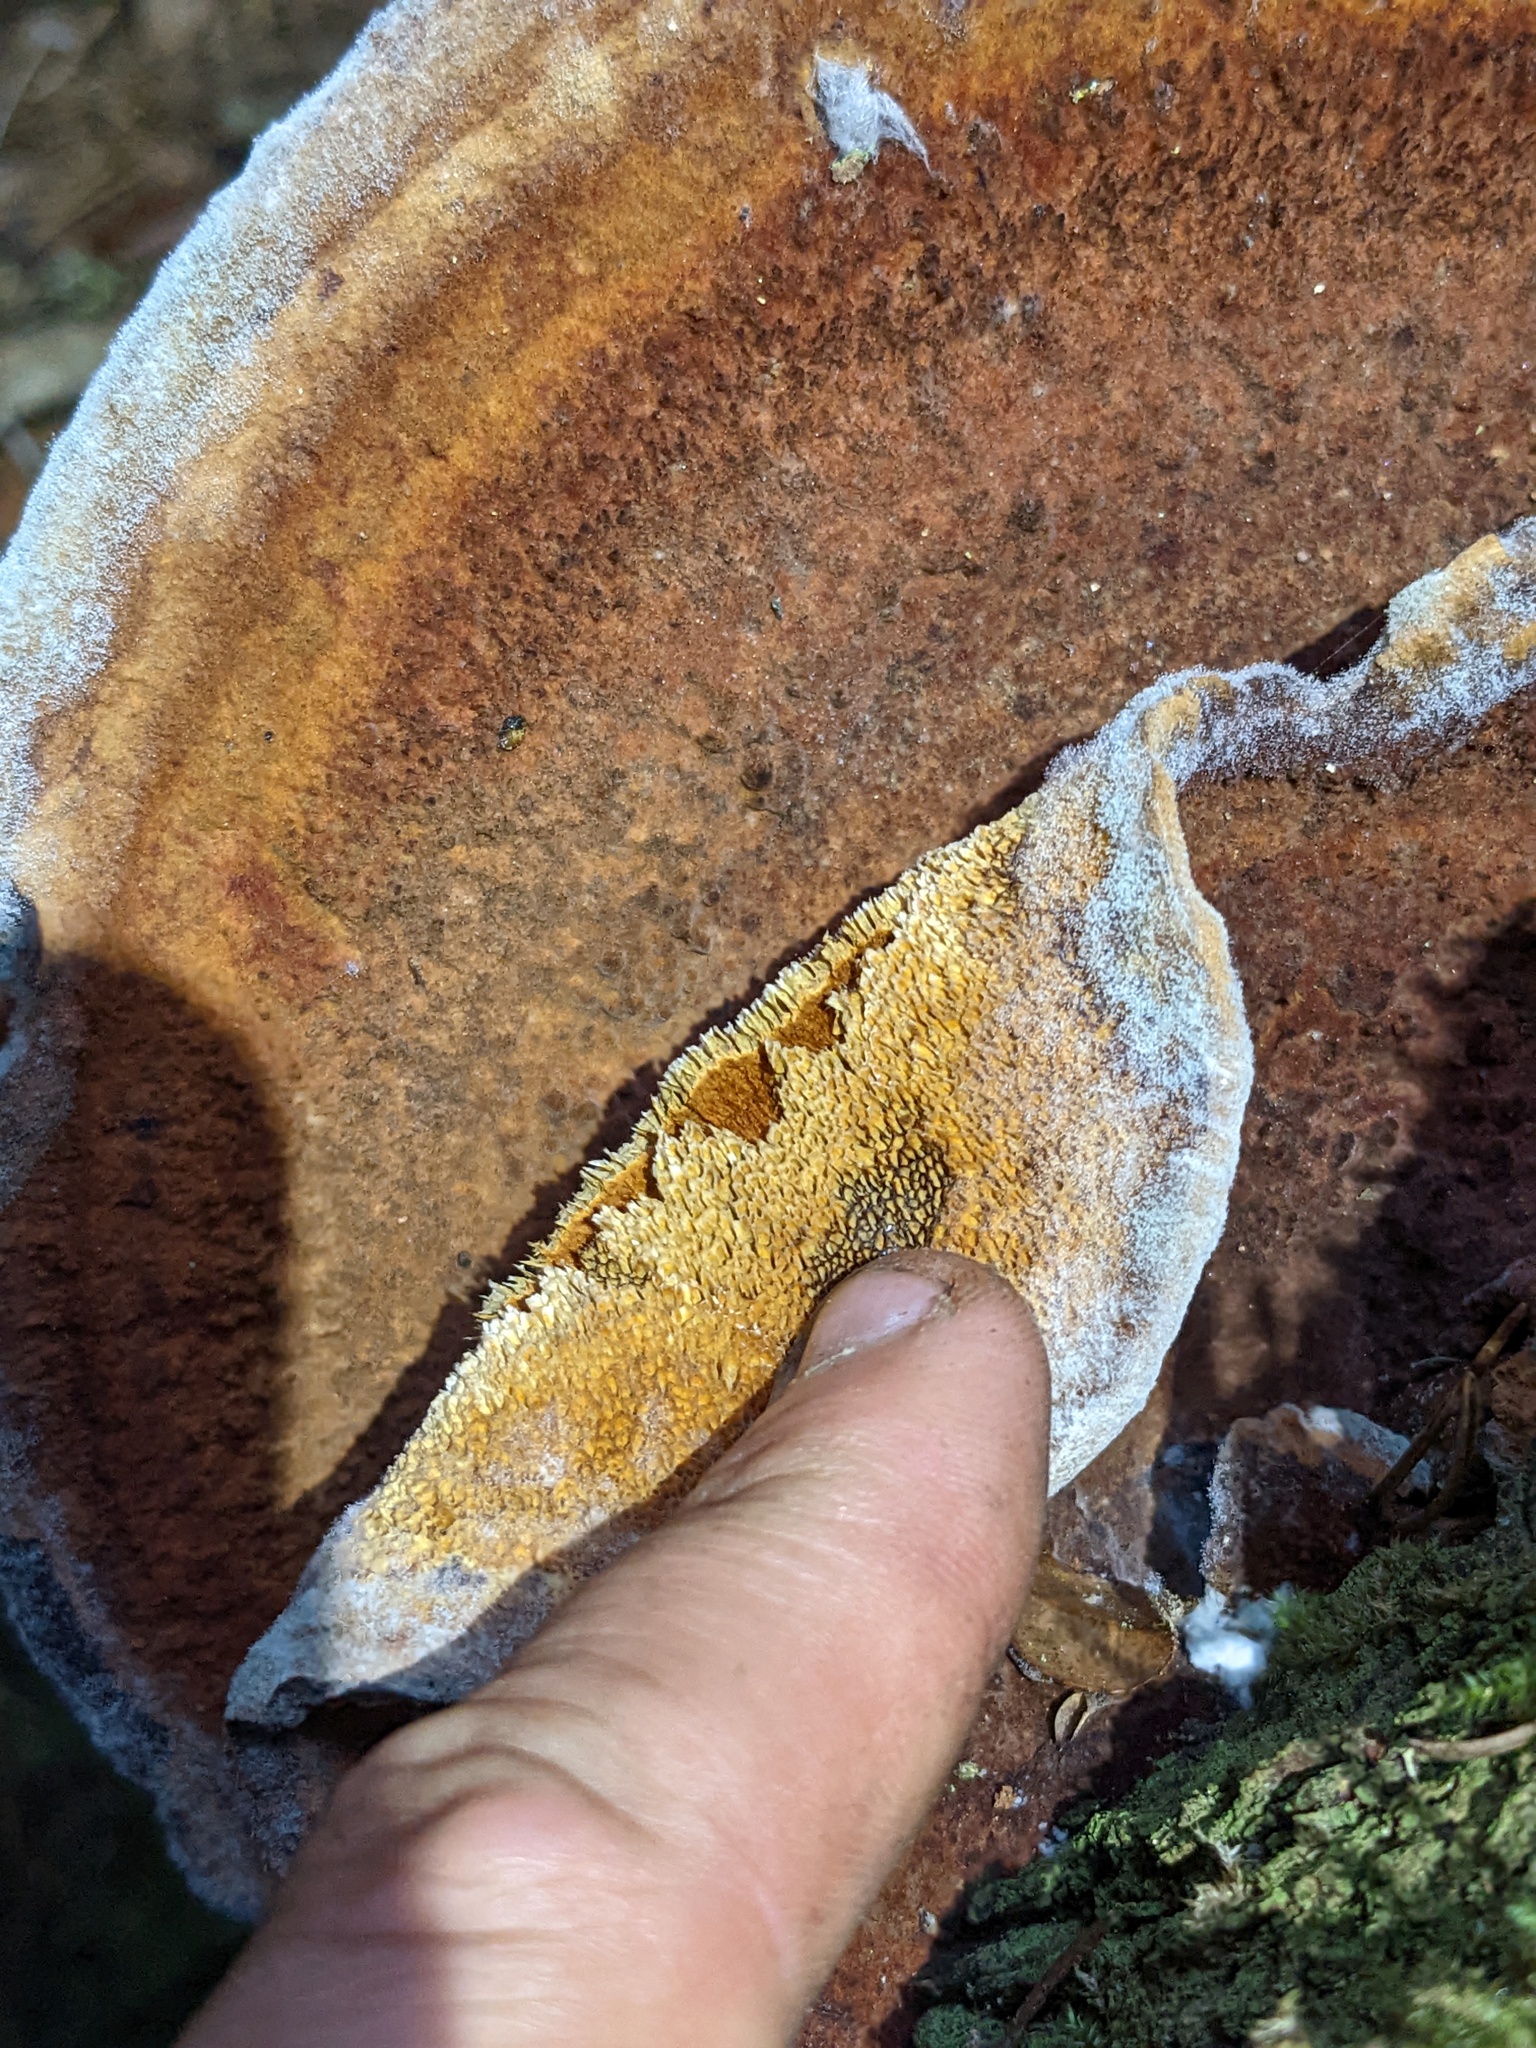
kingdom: Fungi
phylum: Basidiomycota
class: Agaricomycetes
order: Polyporales
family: Laetiporaceae
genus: Phaeolus
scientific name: Phaeolus schweinitzii
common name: Dyer's mazegill
